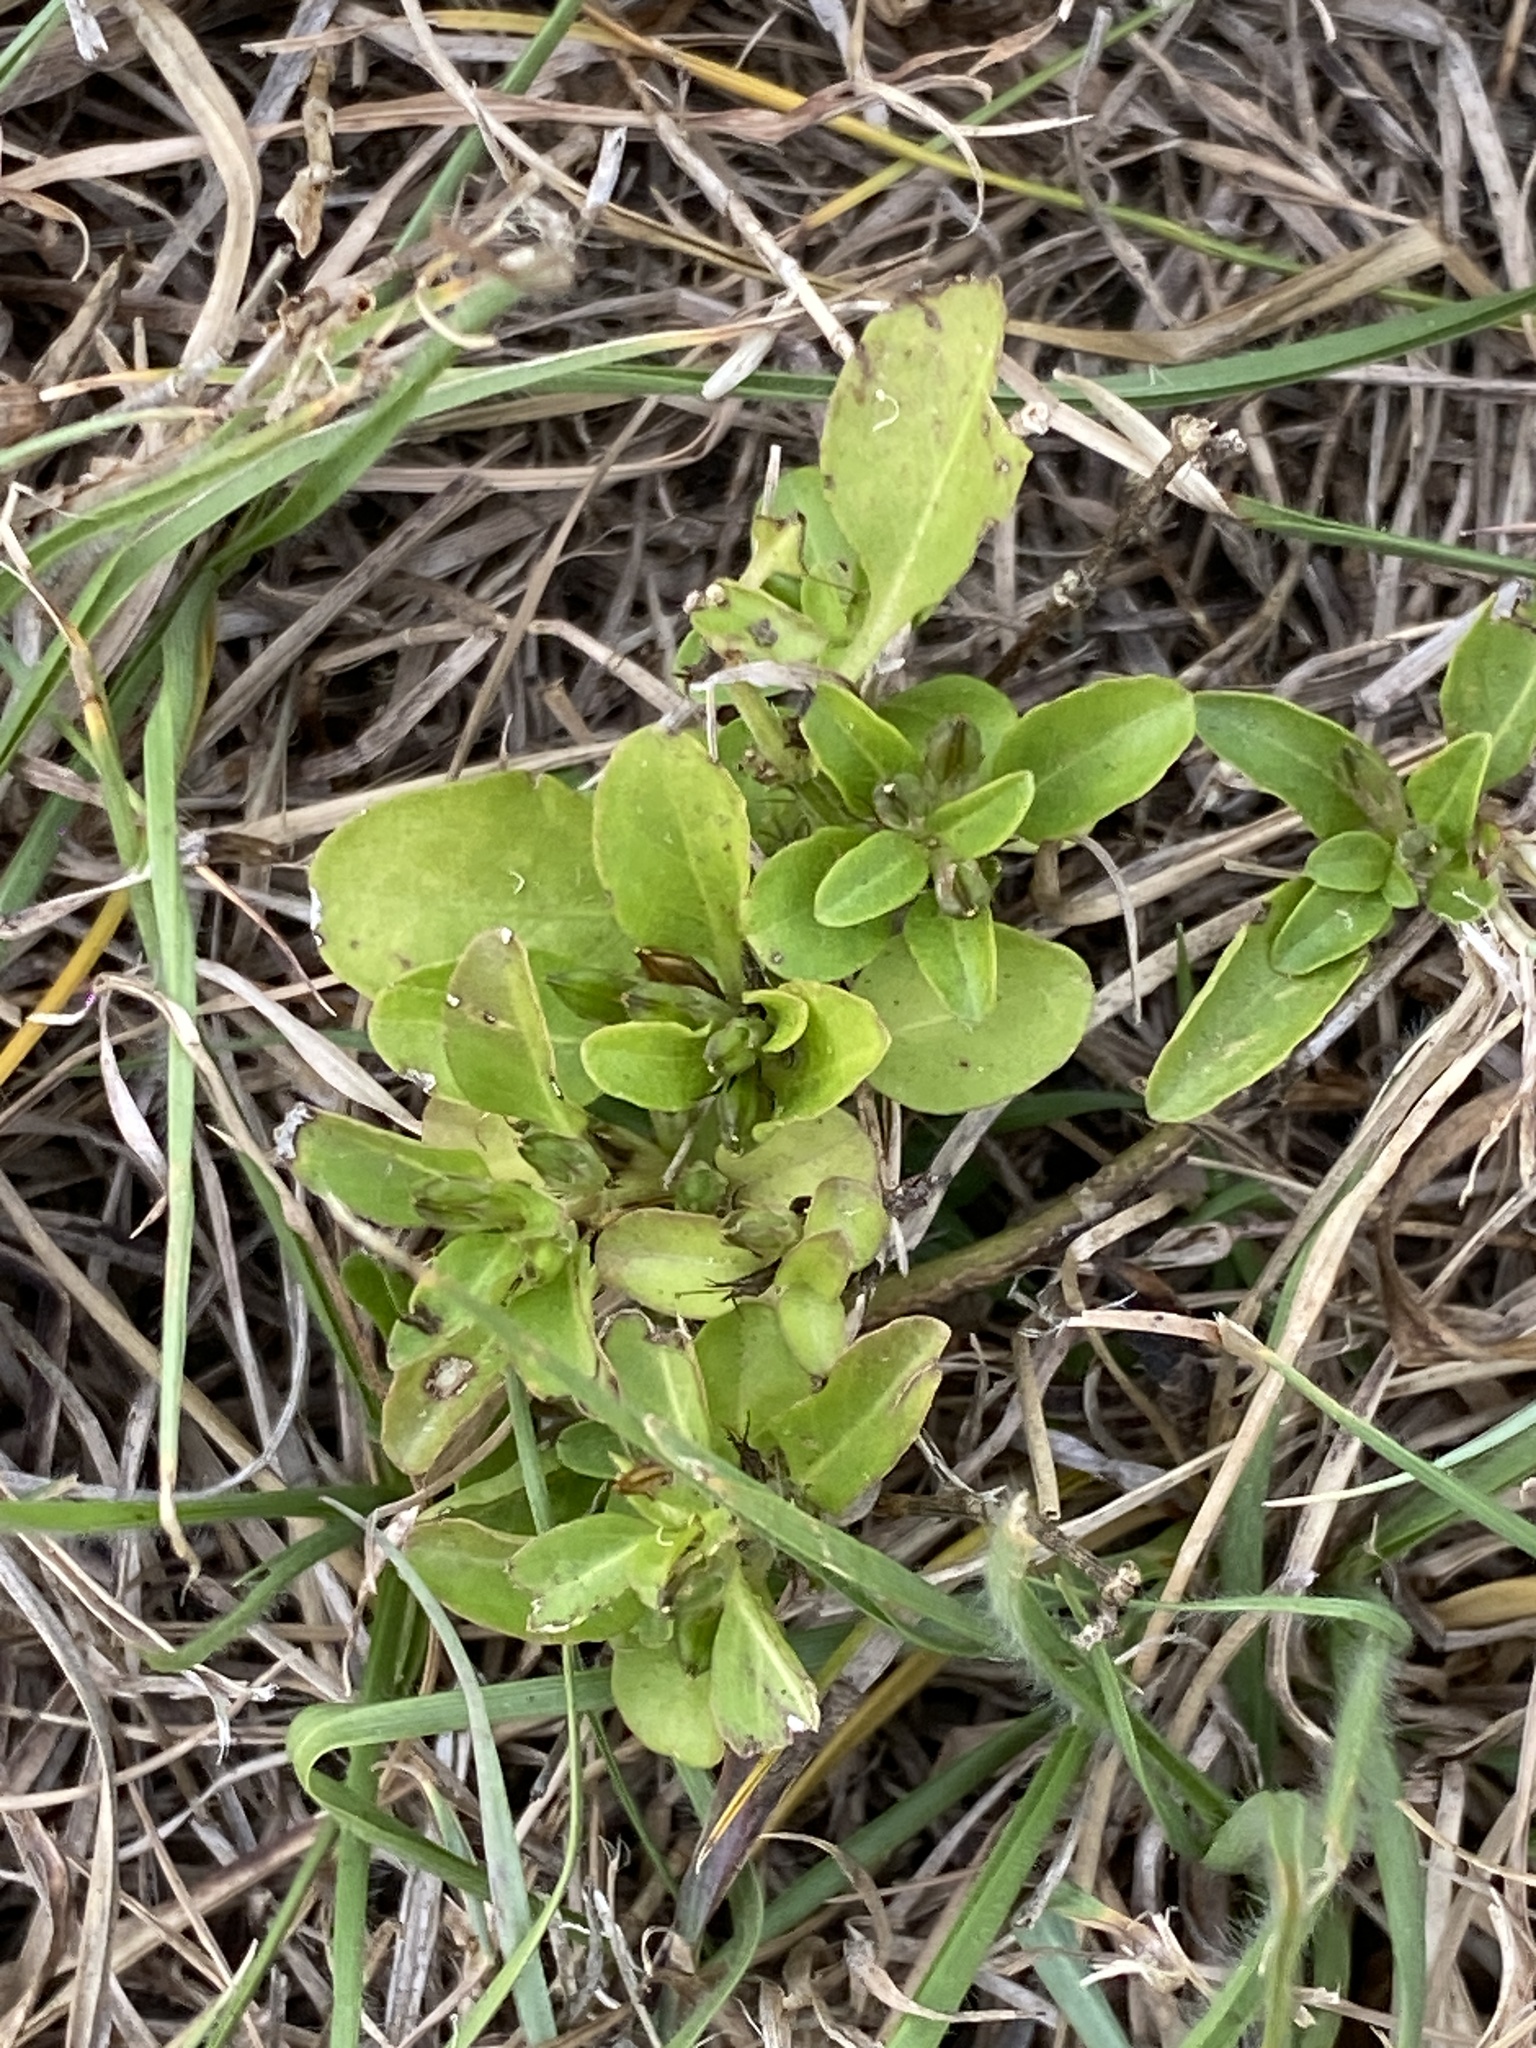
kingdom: Plantae
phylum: Tracheophyta
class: Magnoliopsida
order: Lamiales
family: Acanthaceae
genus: Hygrophila
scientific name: Hygrophila erecta
